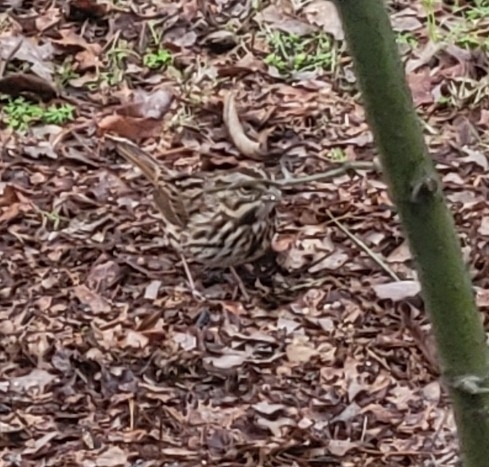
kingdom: Animalia
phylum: Chordata
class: Aves
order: Passeriformes
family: Passerellidae
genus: Melospiza
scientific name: Melospiza melodia
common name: Song sparrow
